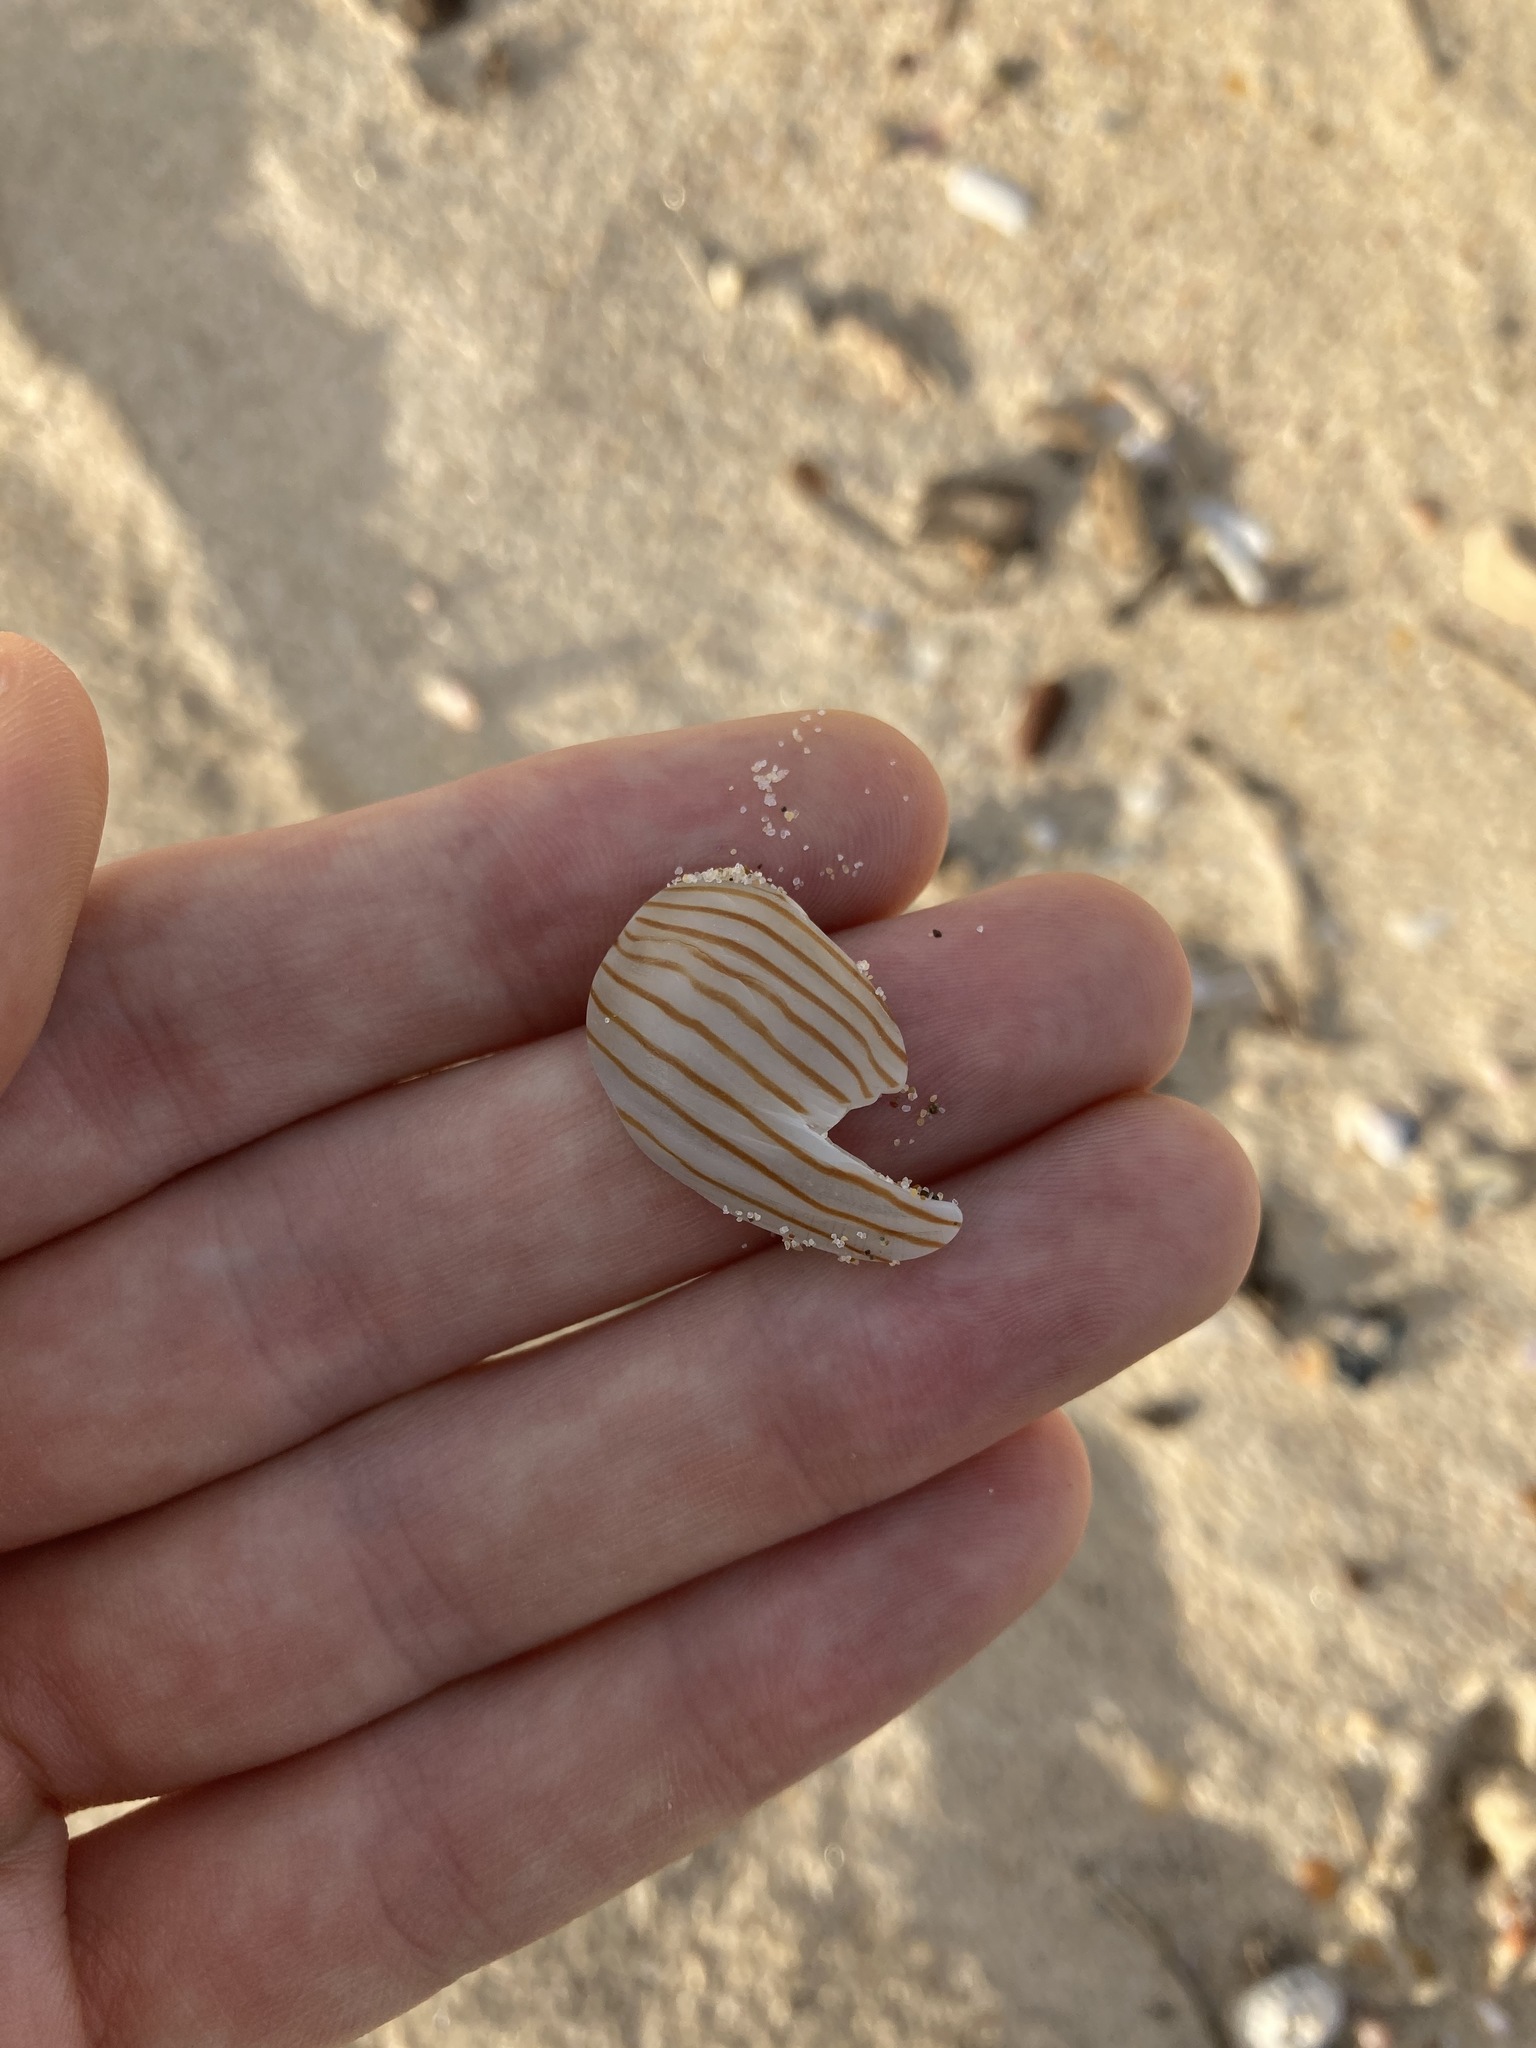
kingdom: Animalia
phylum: Mollusca
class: Gastropoda
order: Neogastropoda
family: Volutidae
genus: Amoria
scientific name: Amoria zebra
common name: Zebra volute
